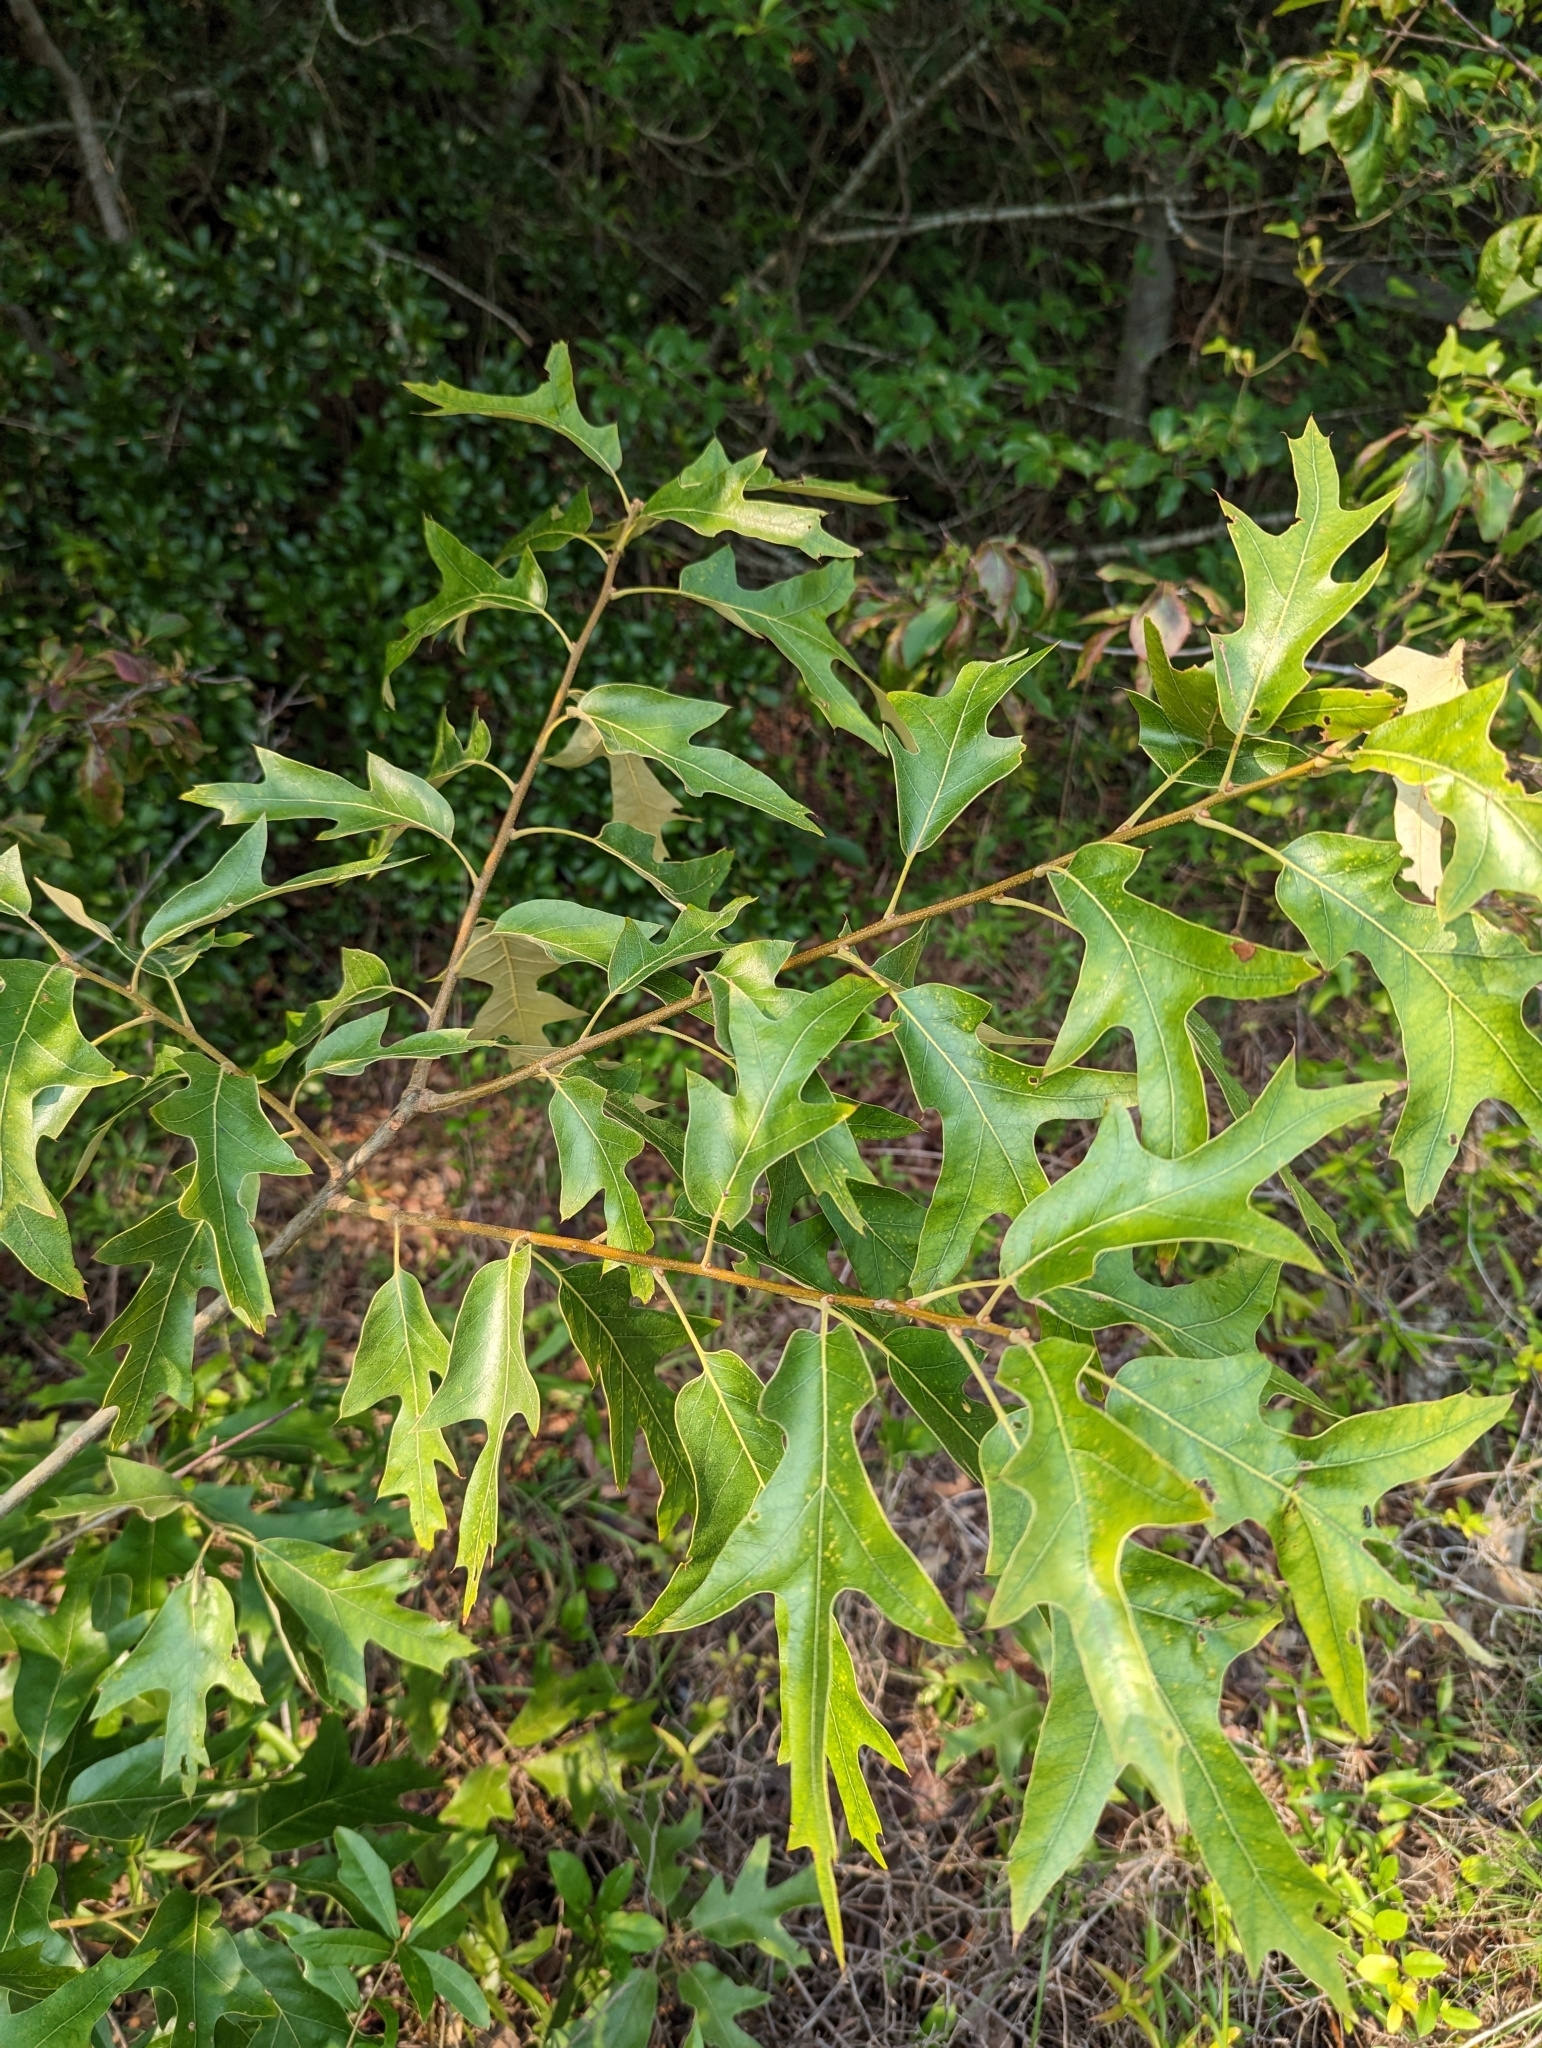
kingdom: Plantae
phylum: Tracheophyta
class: Magnoliopsida
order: Fagales
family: Fagaceae
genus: Quercus
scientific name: Quercus falcata
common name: Southern red oak
